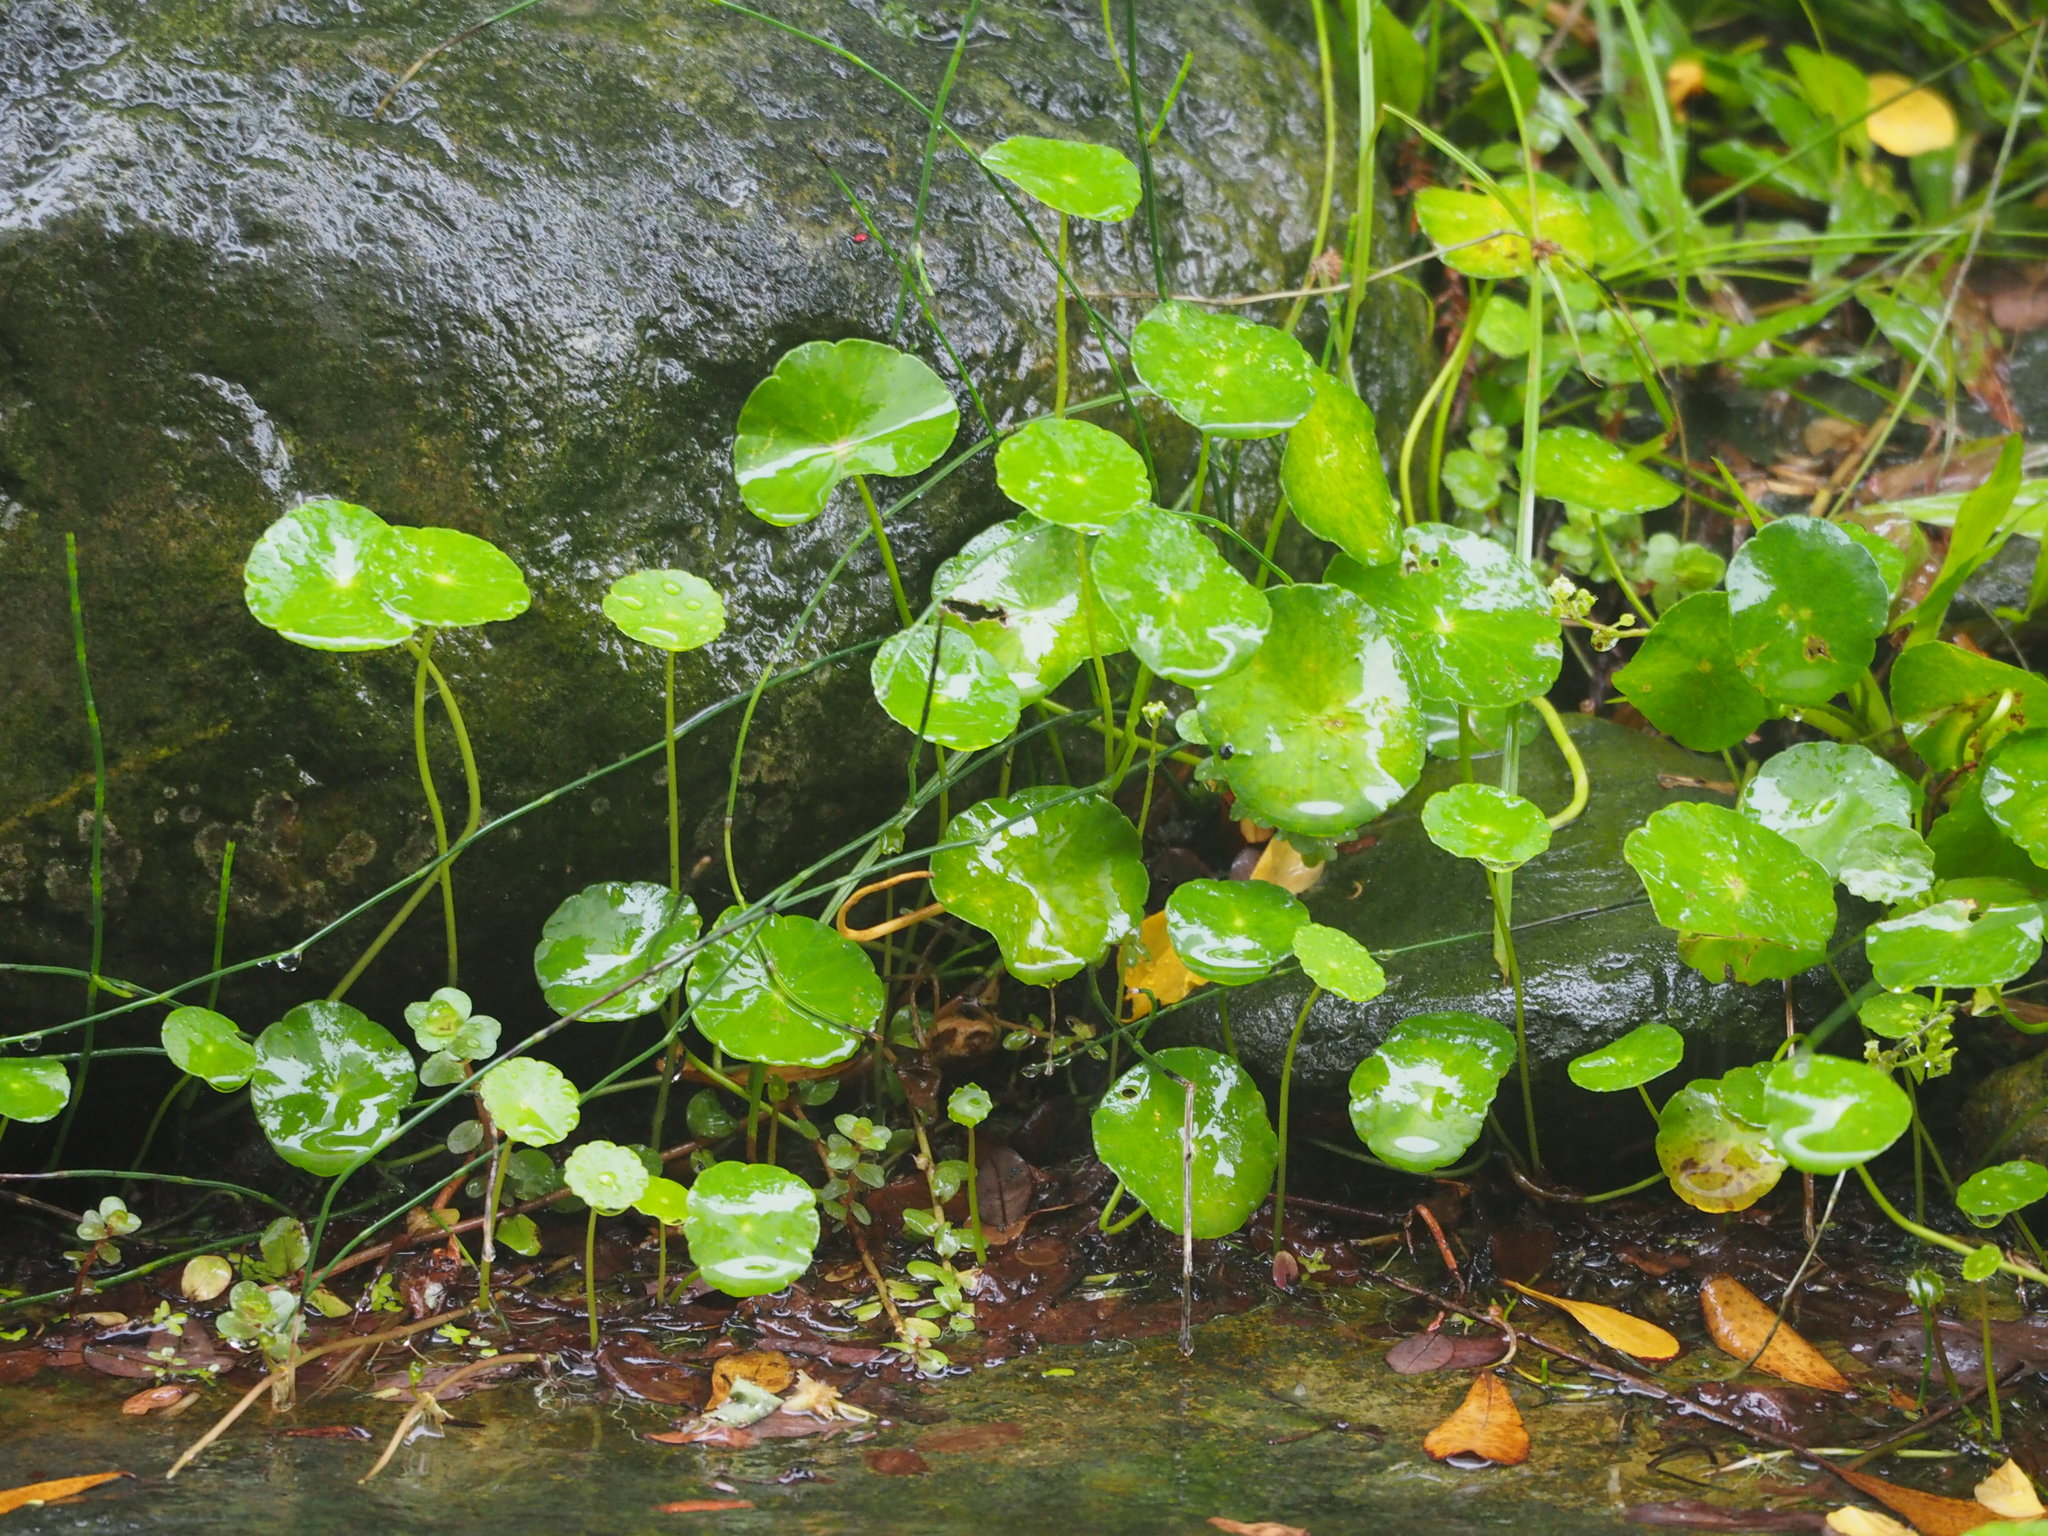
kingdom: Plantae
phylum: Tracheophyta
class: Magnoliopsida
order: Apiales
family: Araliaceae
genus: Hydrocotyle
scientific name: Hydrocotyle verticillata
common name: Whorled marshpennywort
